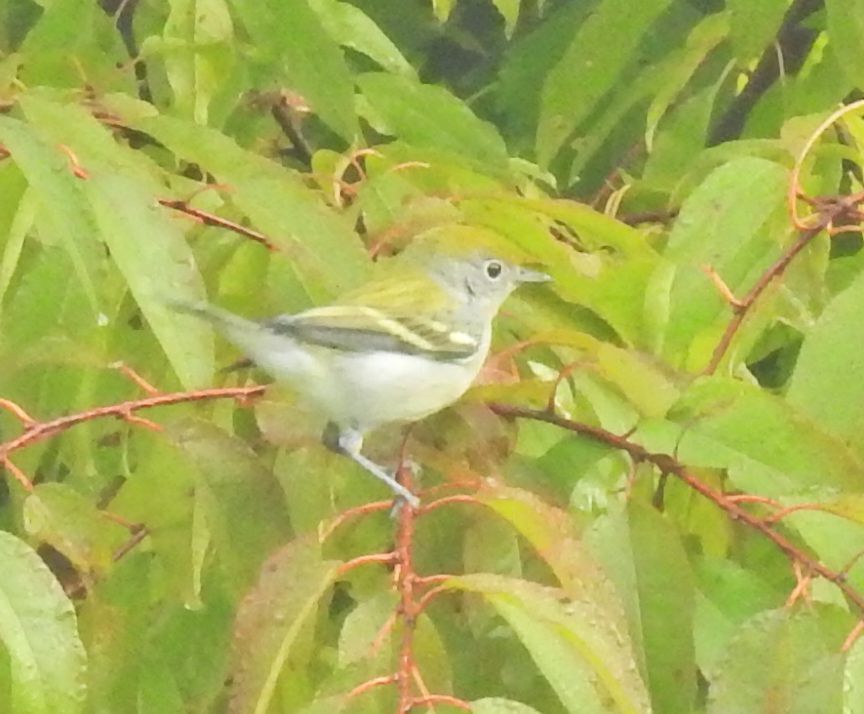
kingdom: Animalia
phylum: Chordata
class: Aves
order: Passeriformes
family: Parulidae
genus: Setophaga
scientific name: Setophaga pensylvanica
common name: Chestnut-sided warbler
